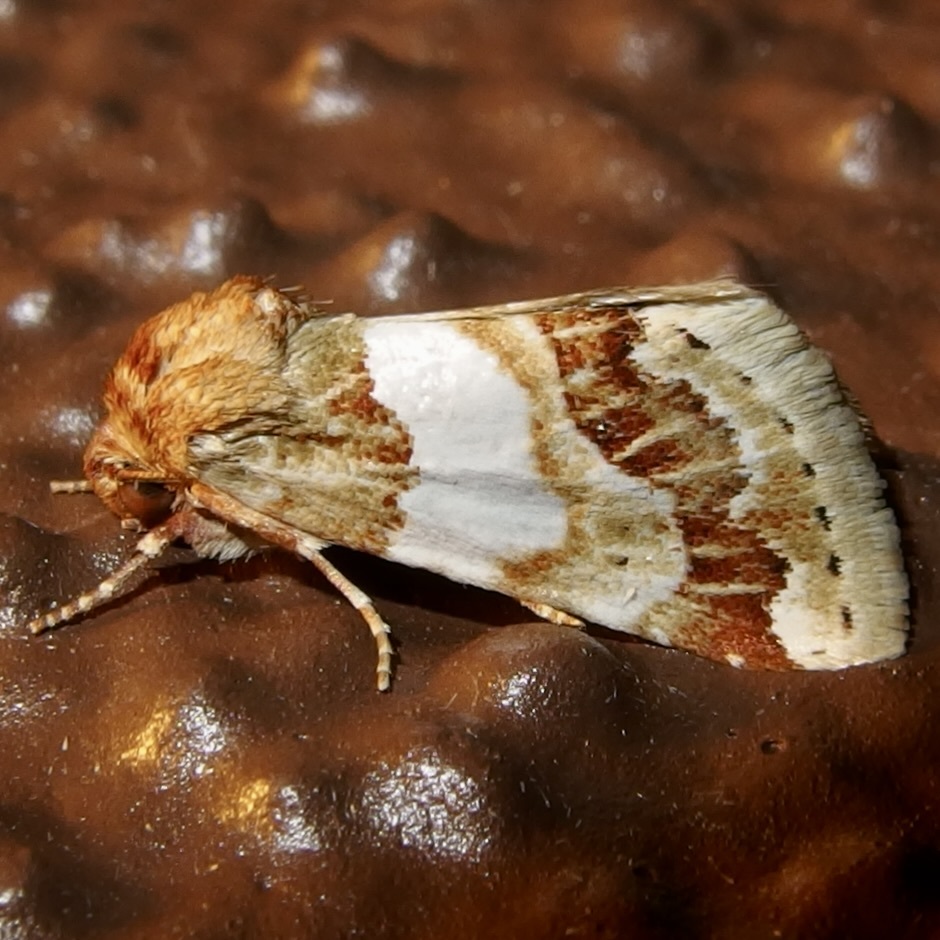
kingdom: Animalia
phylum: Arthropoda
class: Insecta
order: Lepidoptera
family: Noctuidae
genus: Schinia
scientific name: Schinia argentifascia
